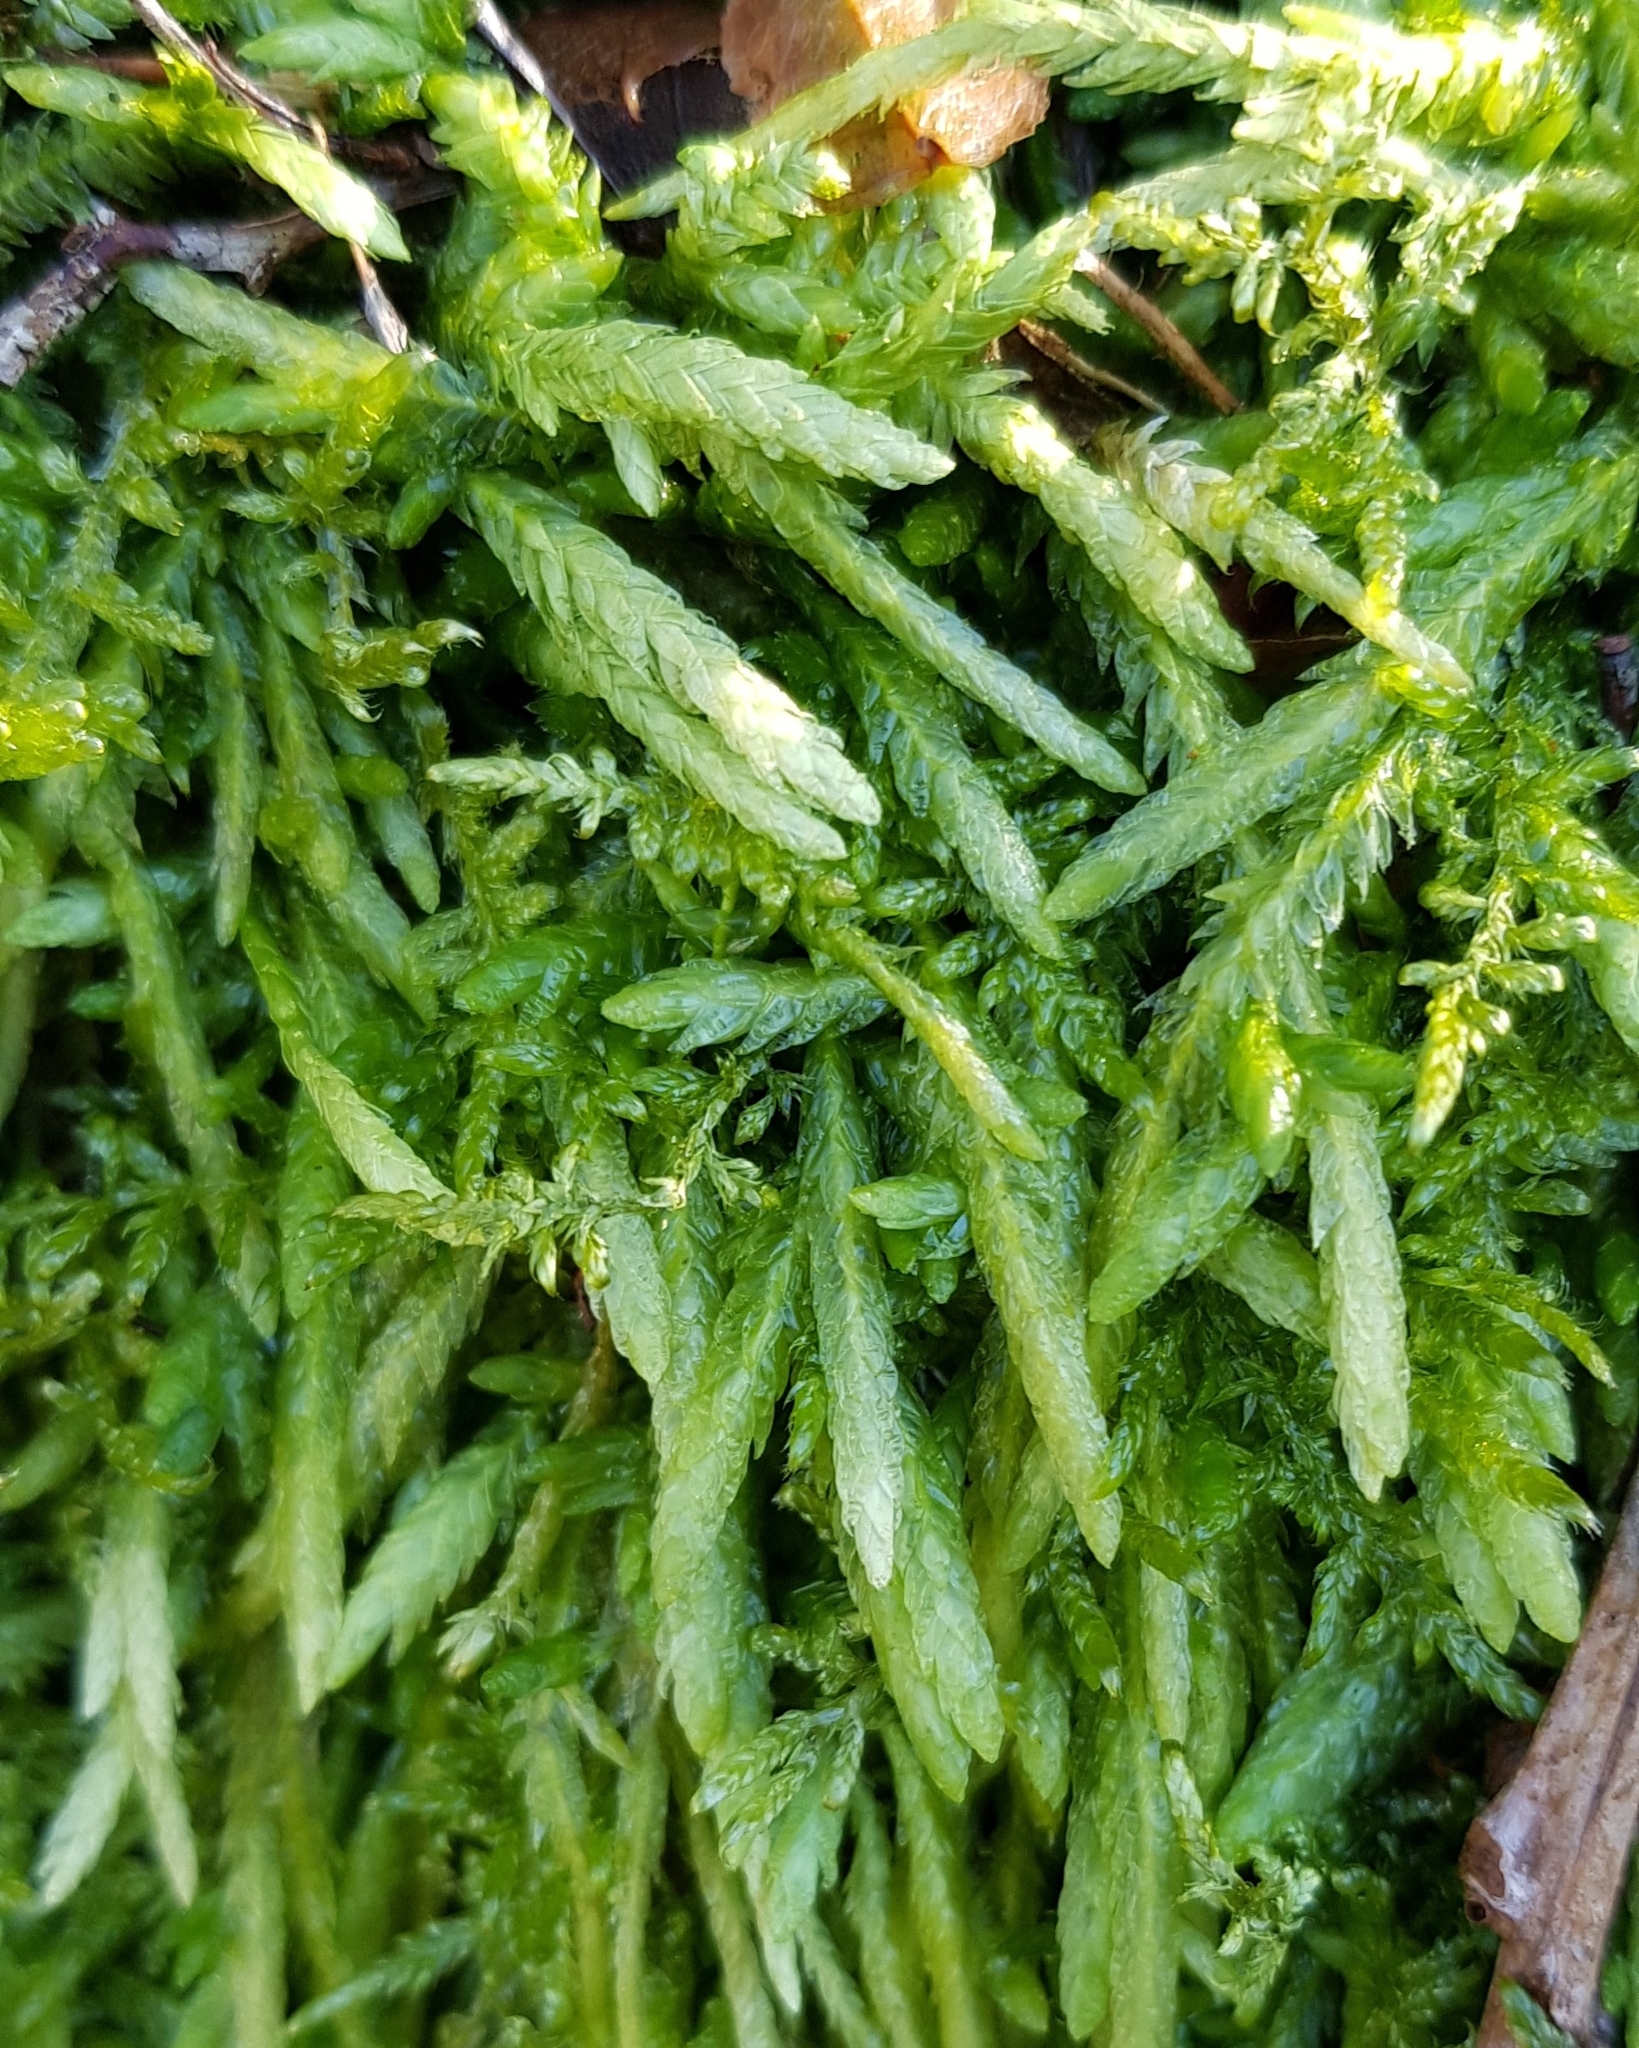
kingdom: Plantae
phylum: Bryophyta
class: Bryopsida
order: Hypnales
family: Plagiotheciaceae
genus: Plagiothecium
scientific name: Plagiothecium undulatum
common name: Waved silk-moss
